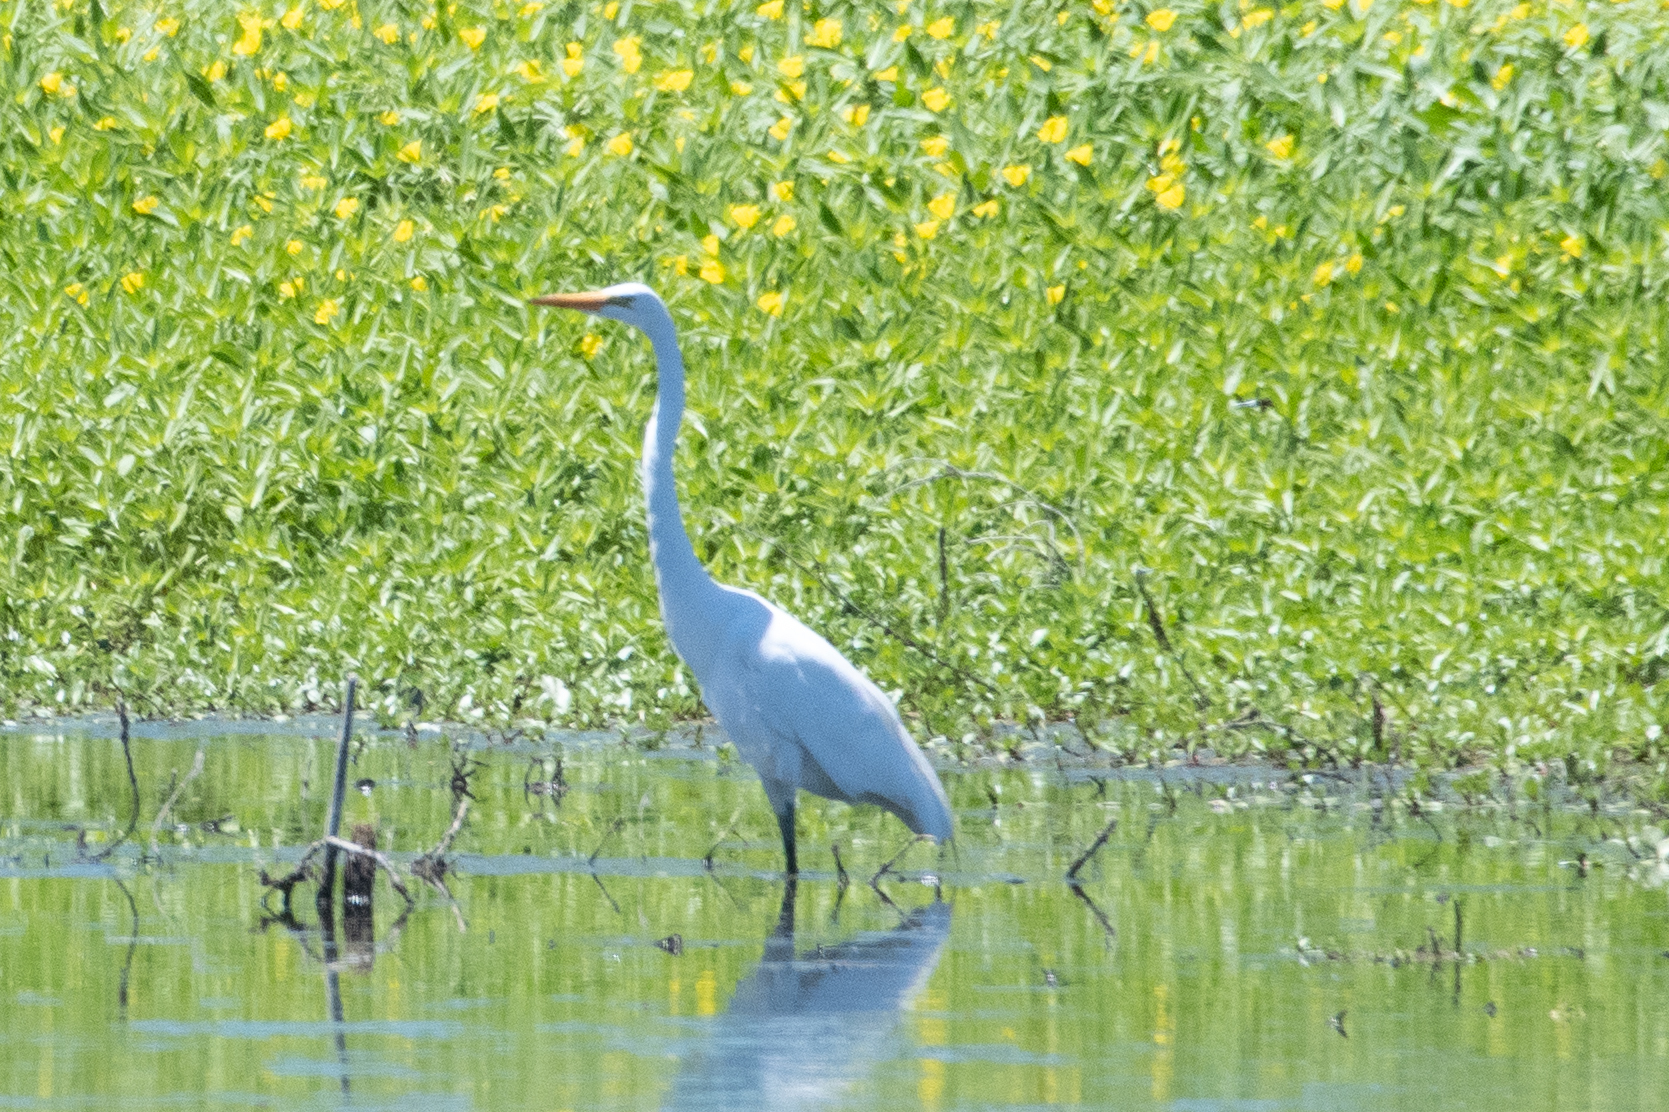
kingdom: Animalia
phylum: Chordata
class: Aves
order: Pelecaniformes
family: Ardeidae
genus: Ardea
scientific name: Ardea alba
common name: Great egret
